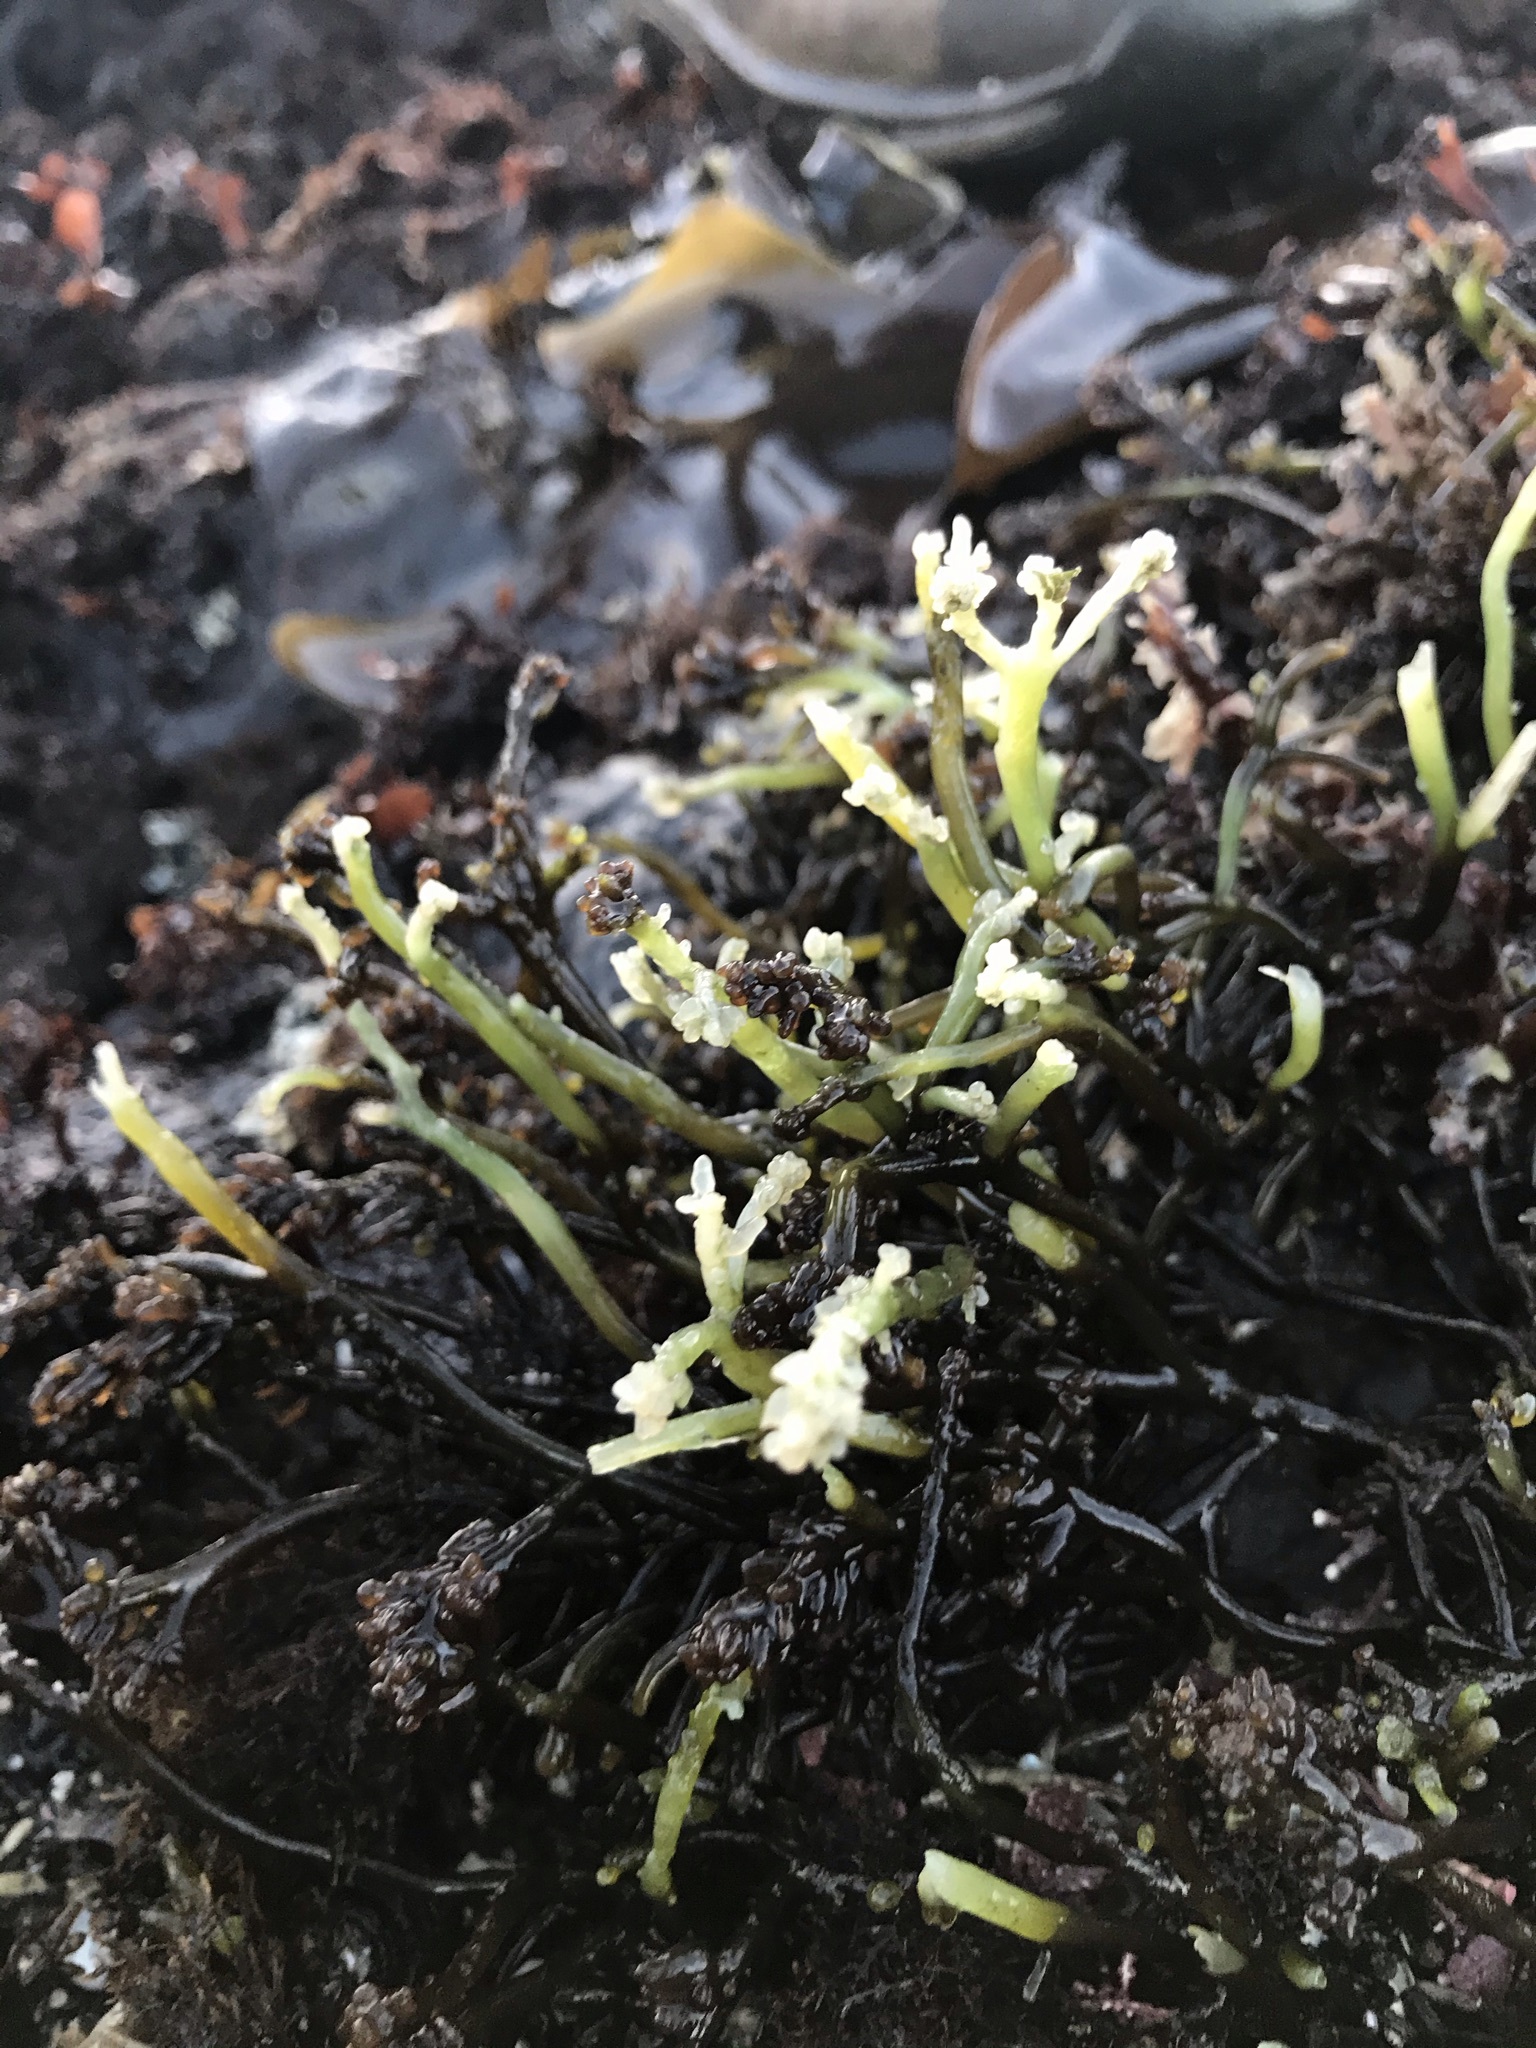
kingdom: Plantae
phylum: Rhodophyta
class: Florideophyceae
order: Rhodymeniales
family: Champiaceae
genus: Neogastroclonium
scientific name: Neogastroclonium subarticulatum
